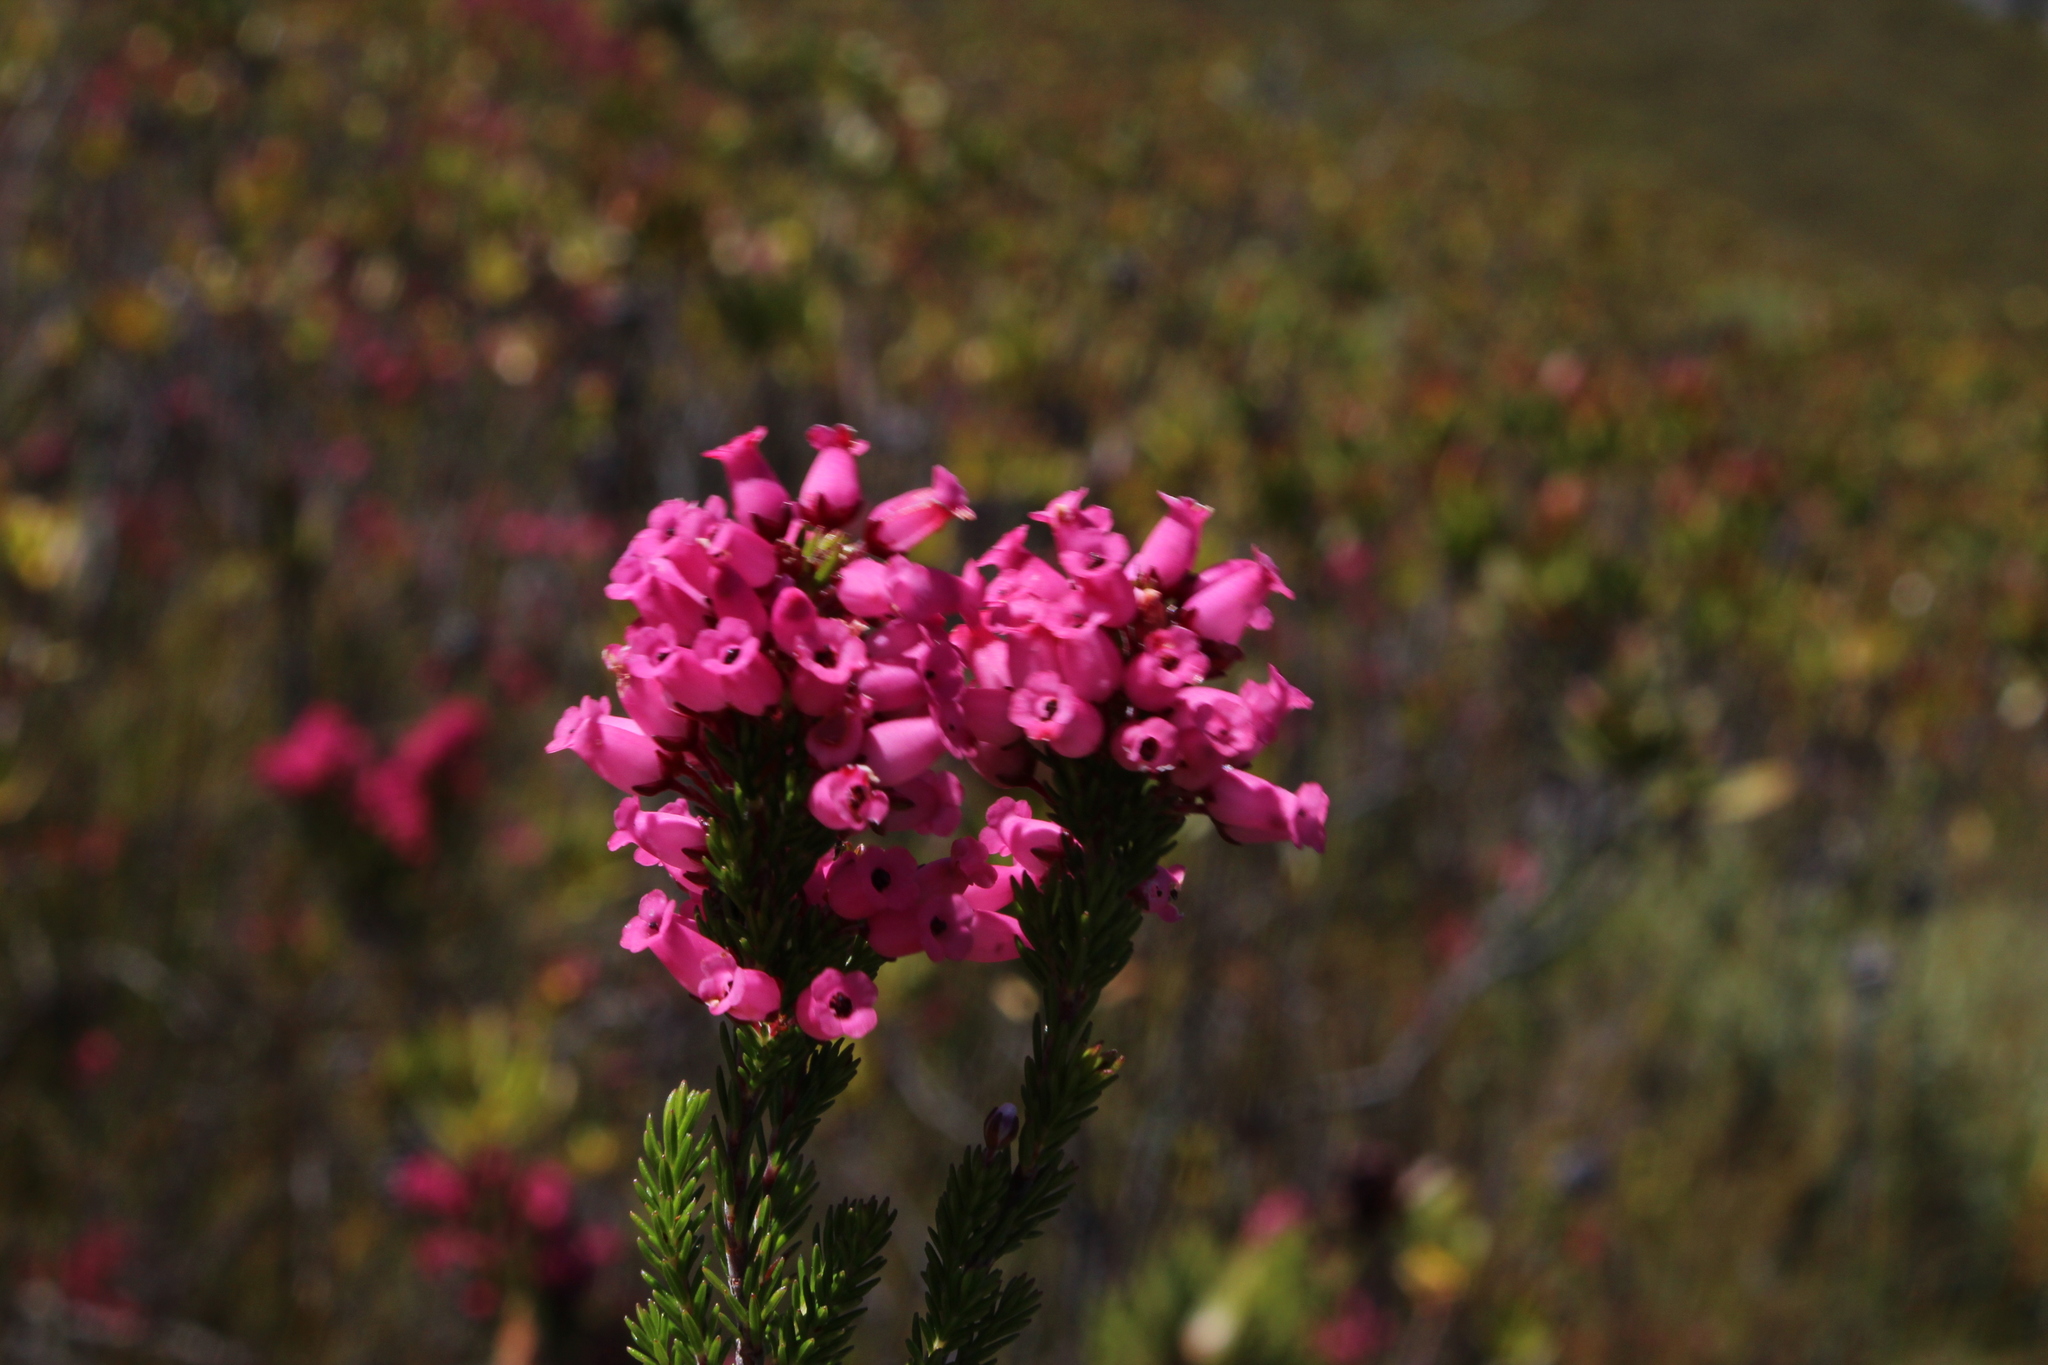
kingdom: Plantae
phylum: Tracheophyta
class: Magnoliopsida
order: Ericales
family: Ericaceae
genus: Erica
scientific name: Erica tenella
